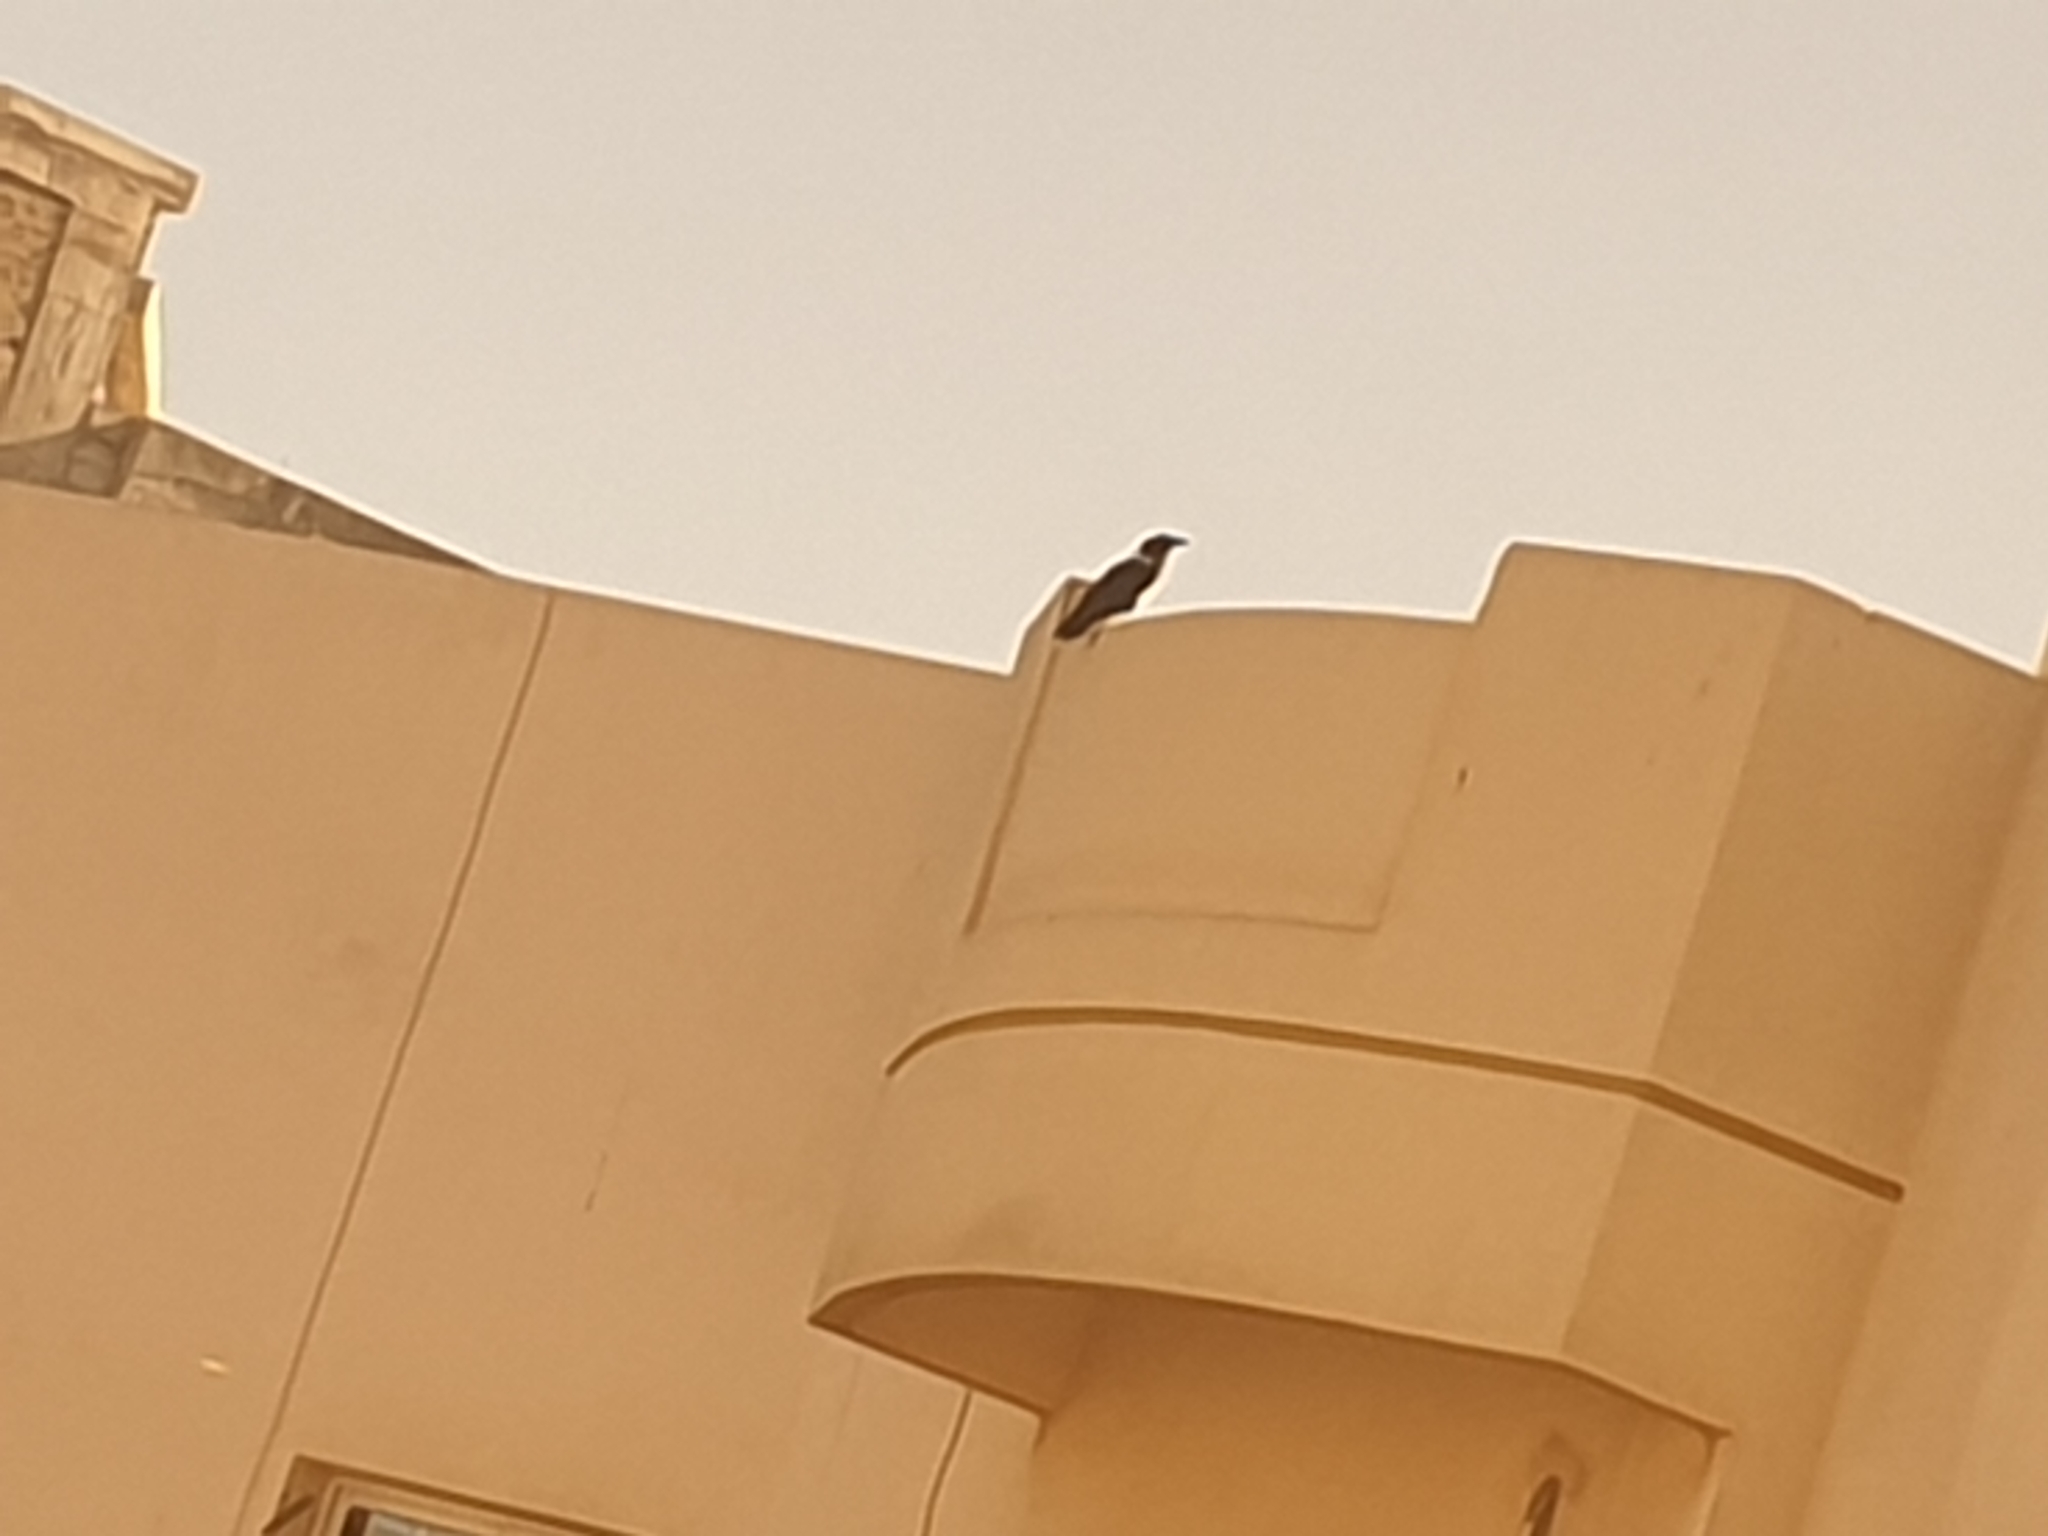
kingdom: Animalia
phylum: Chordata
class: Aves
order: Passeriformes
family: Corvidae
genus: Corvus
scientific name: Corvus albus
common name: Pied crow
